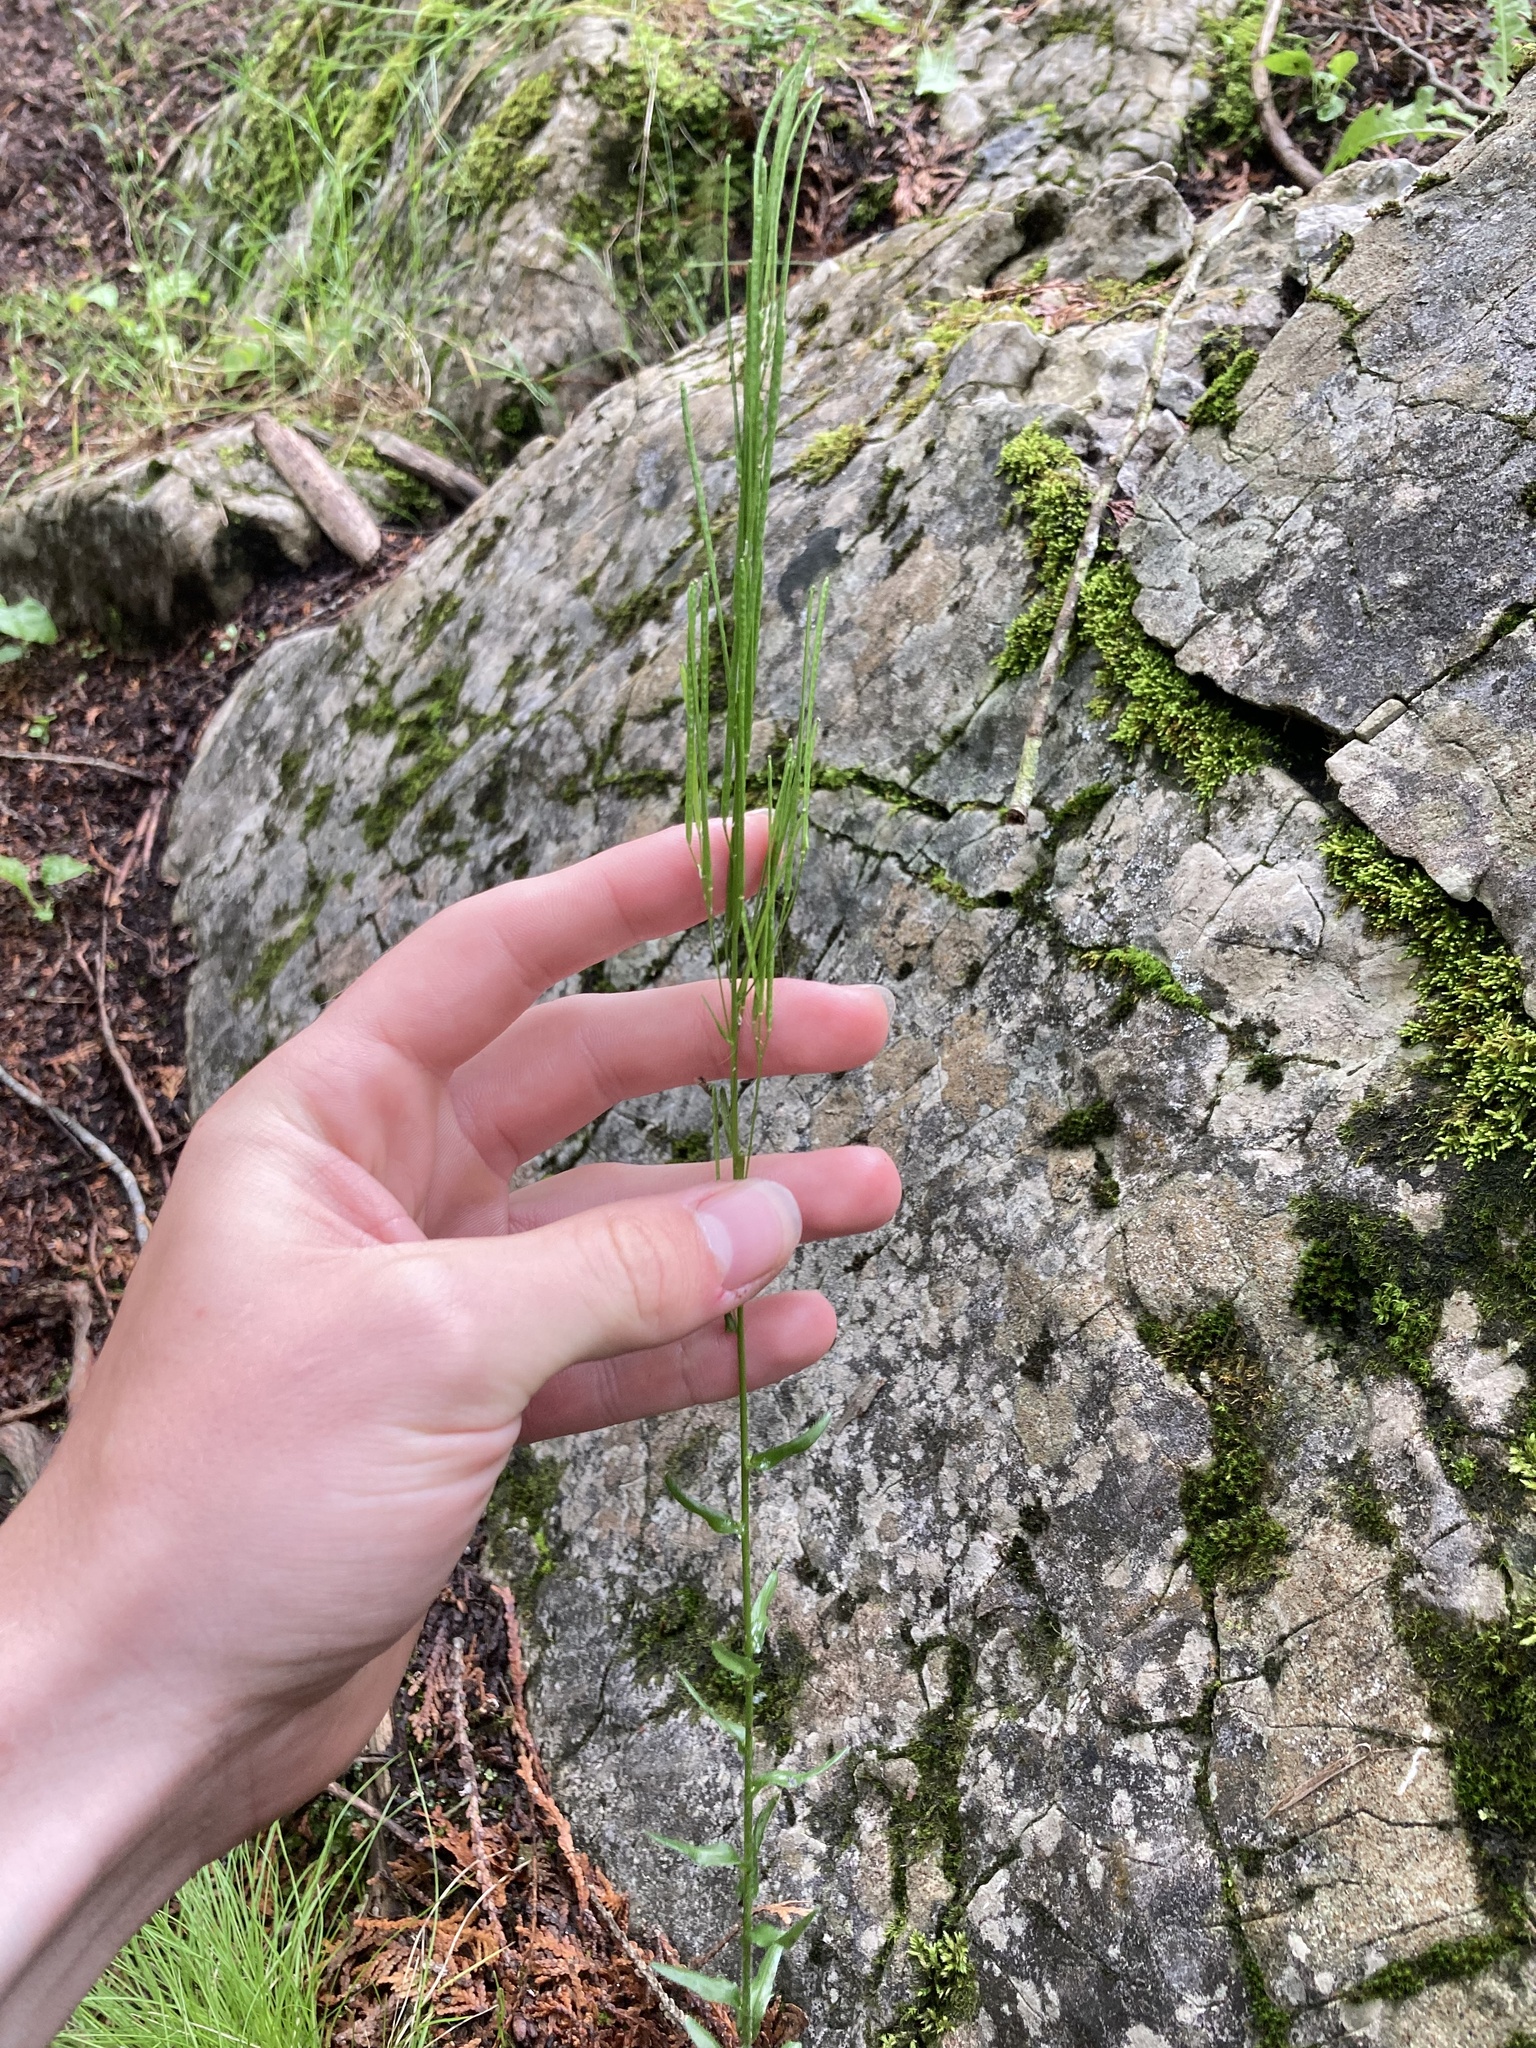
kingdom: Plantae
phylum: Tracheophyta
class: Magnoliopsida
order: Brassicales
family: Brassicaceae
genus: Arabis
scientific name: Arabis pycnocarpa
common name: Blushing rockcress
